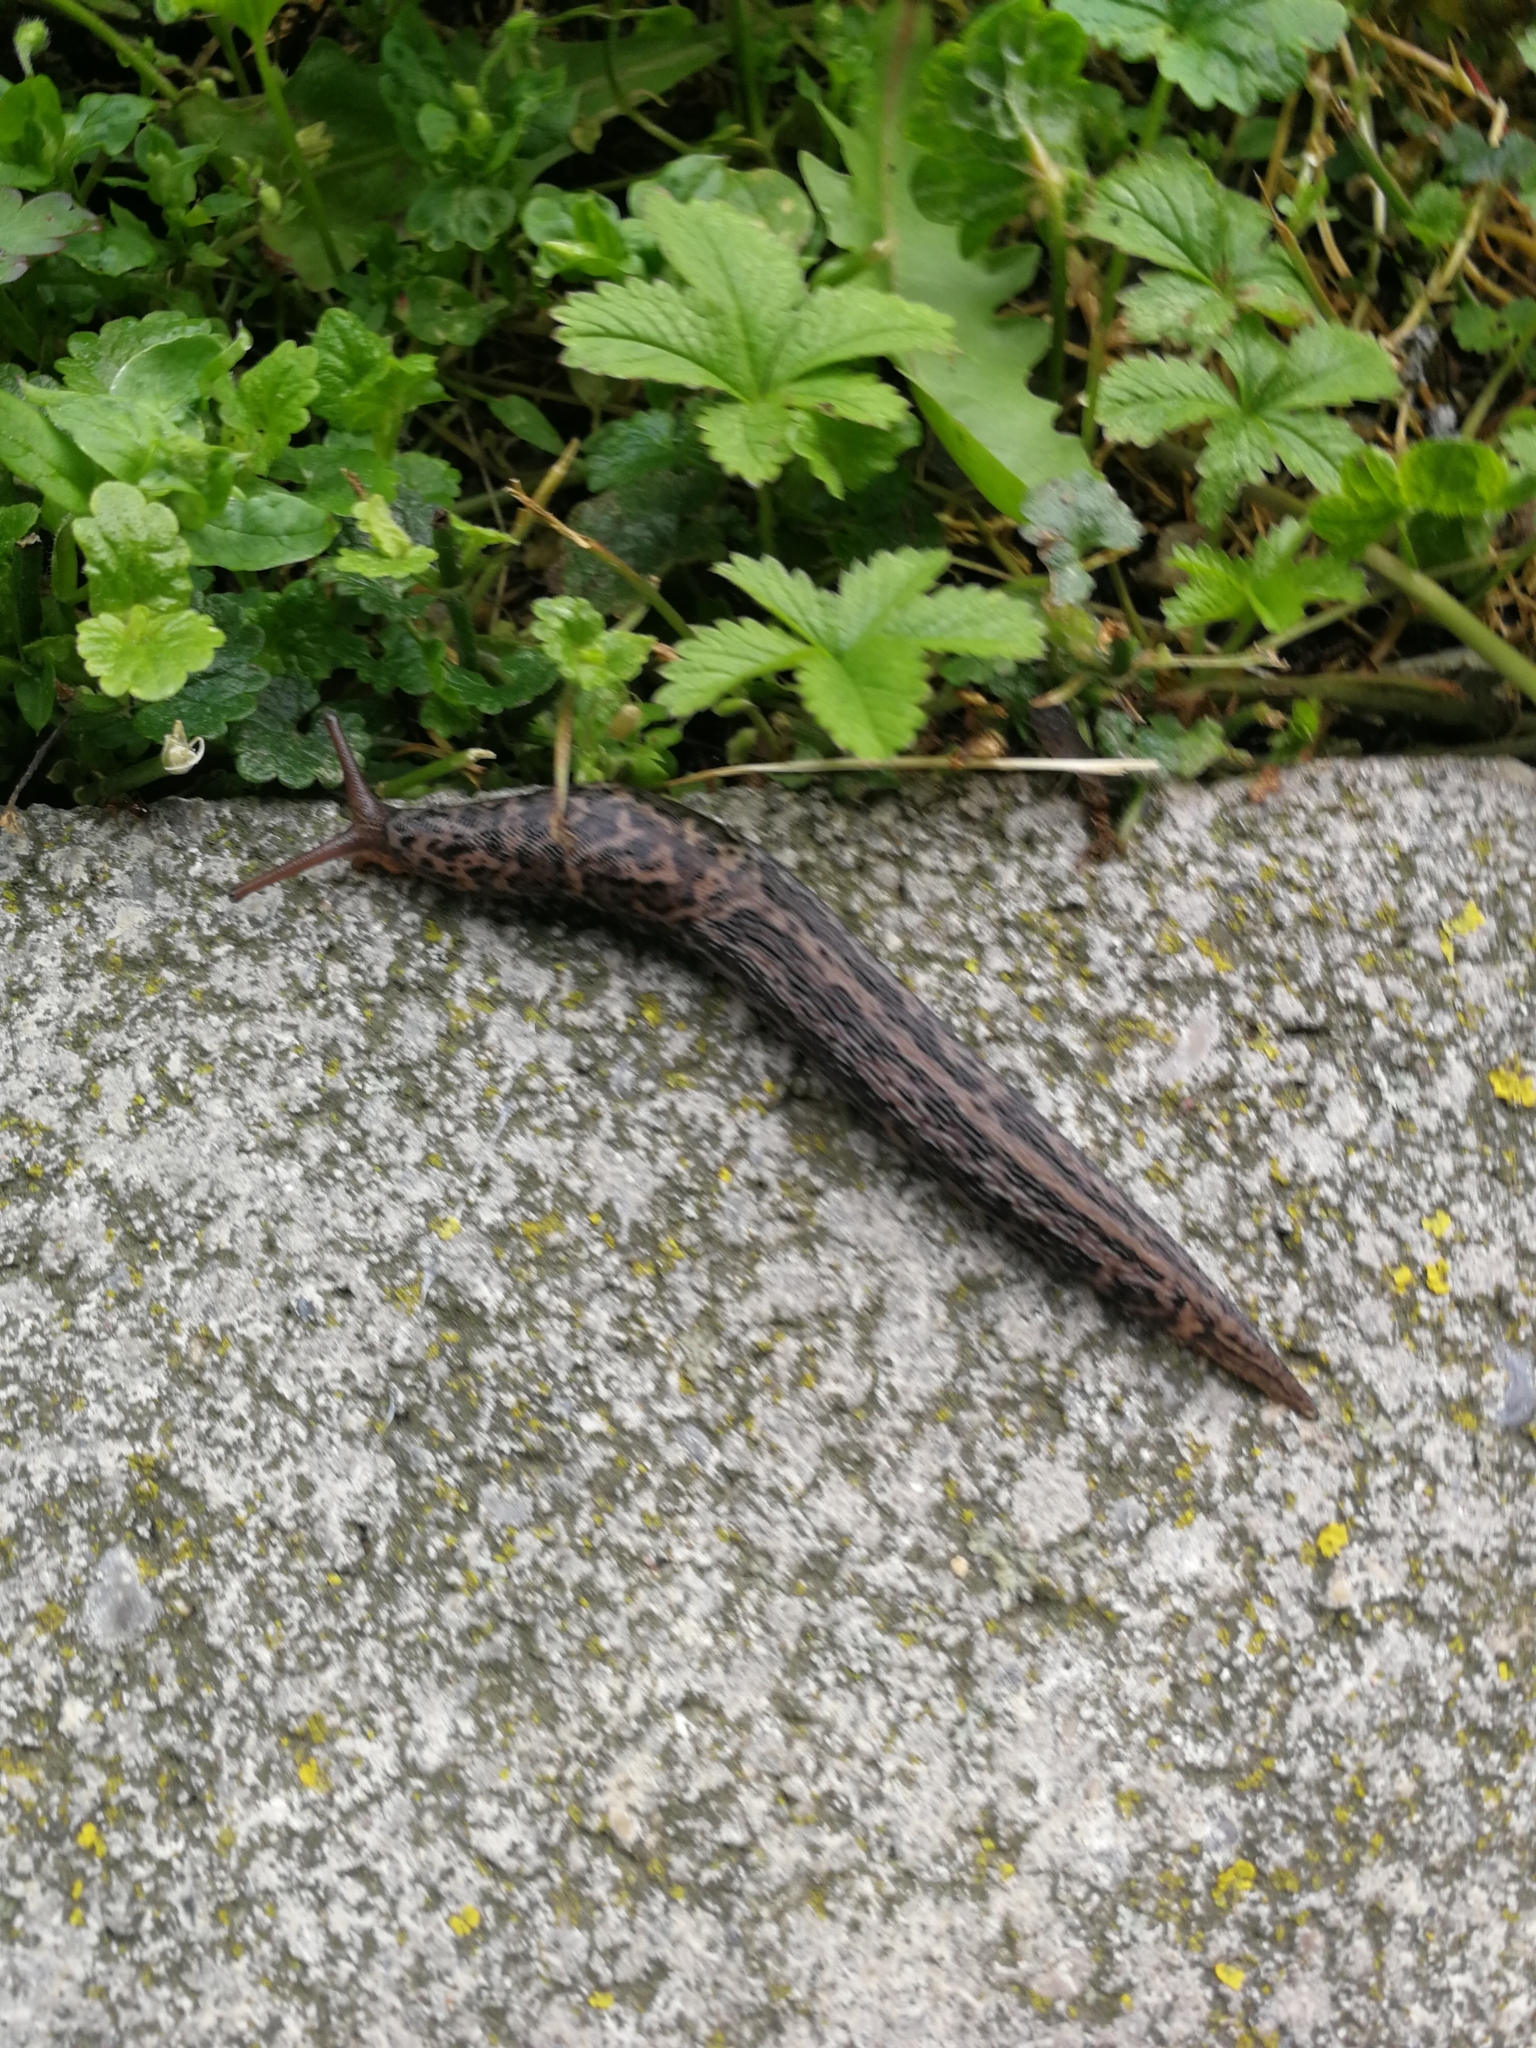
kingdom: Animalia
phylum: Mollusca
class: Gastropoda
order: Stylommatophora
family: Limacidae
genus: Limax
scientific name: Limax maximus
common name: Great grey slug
